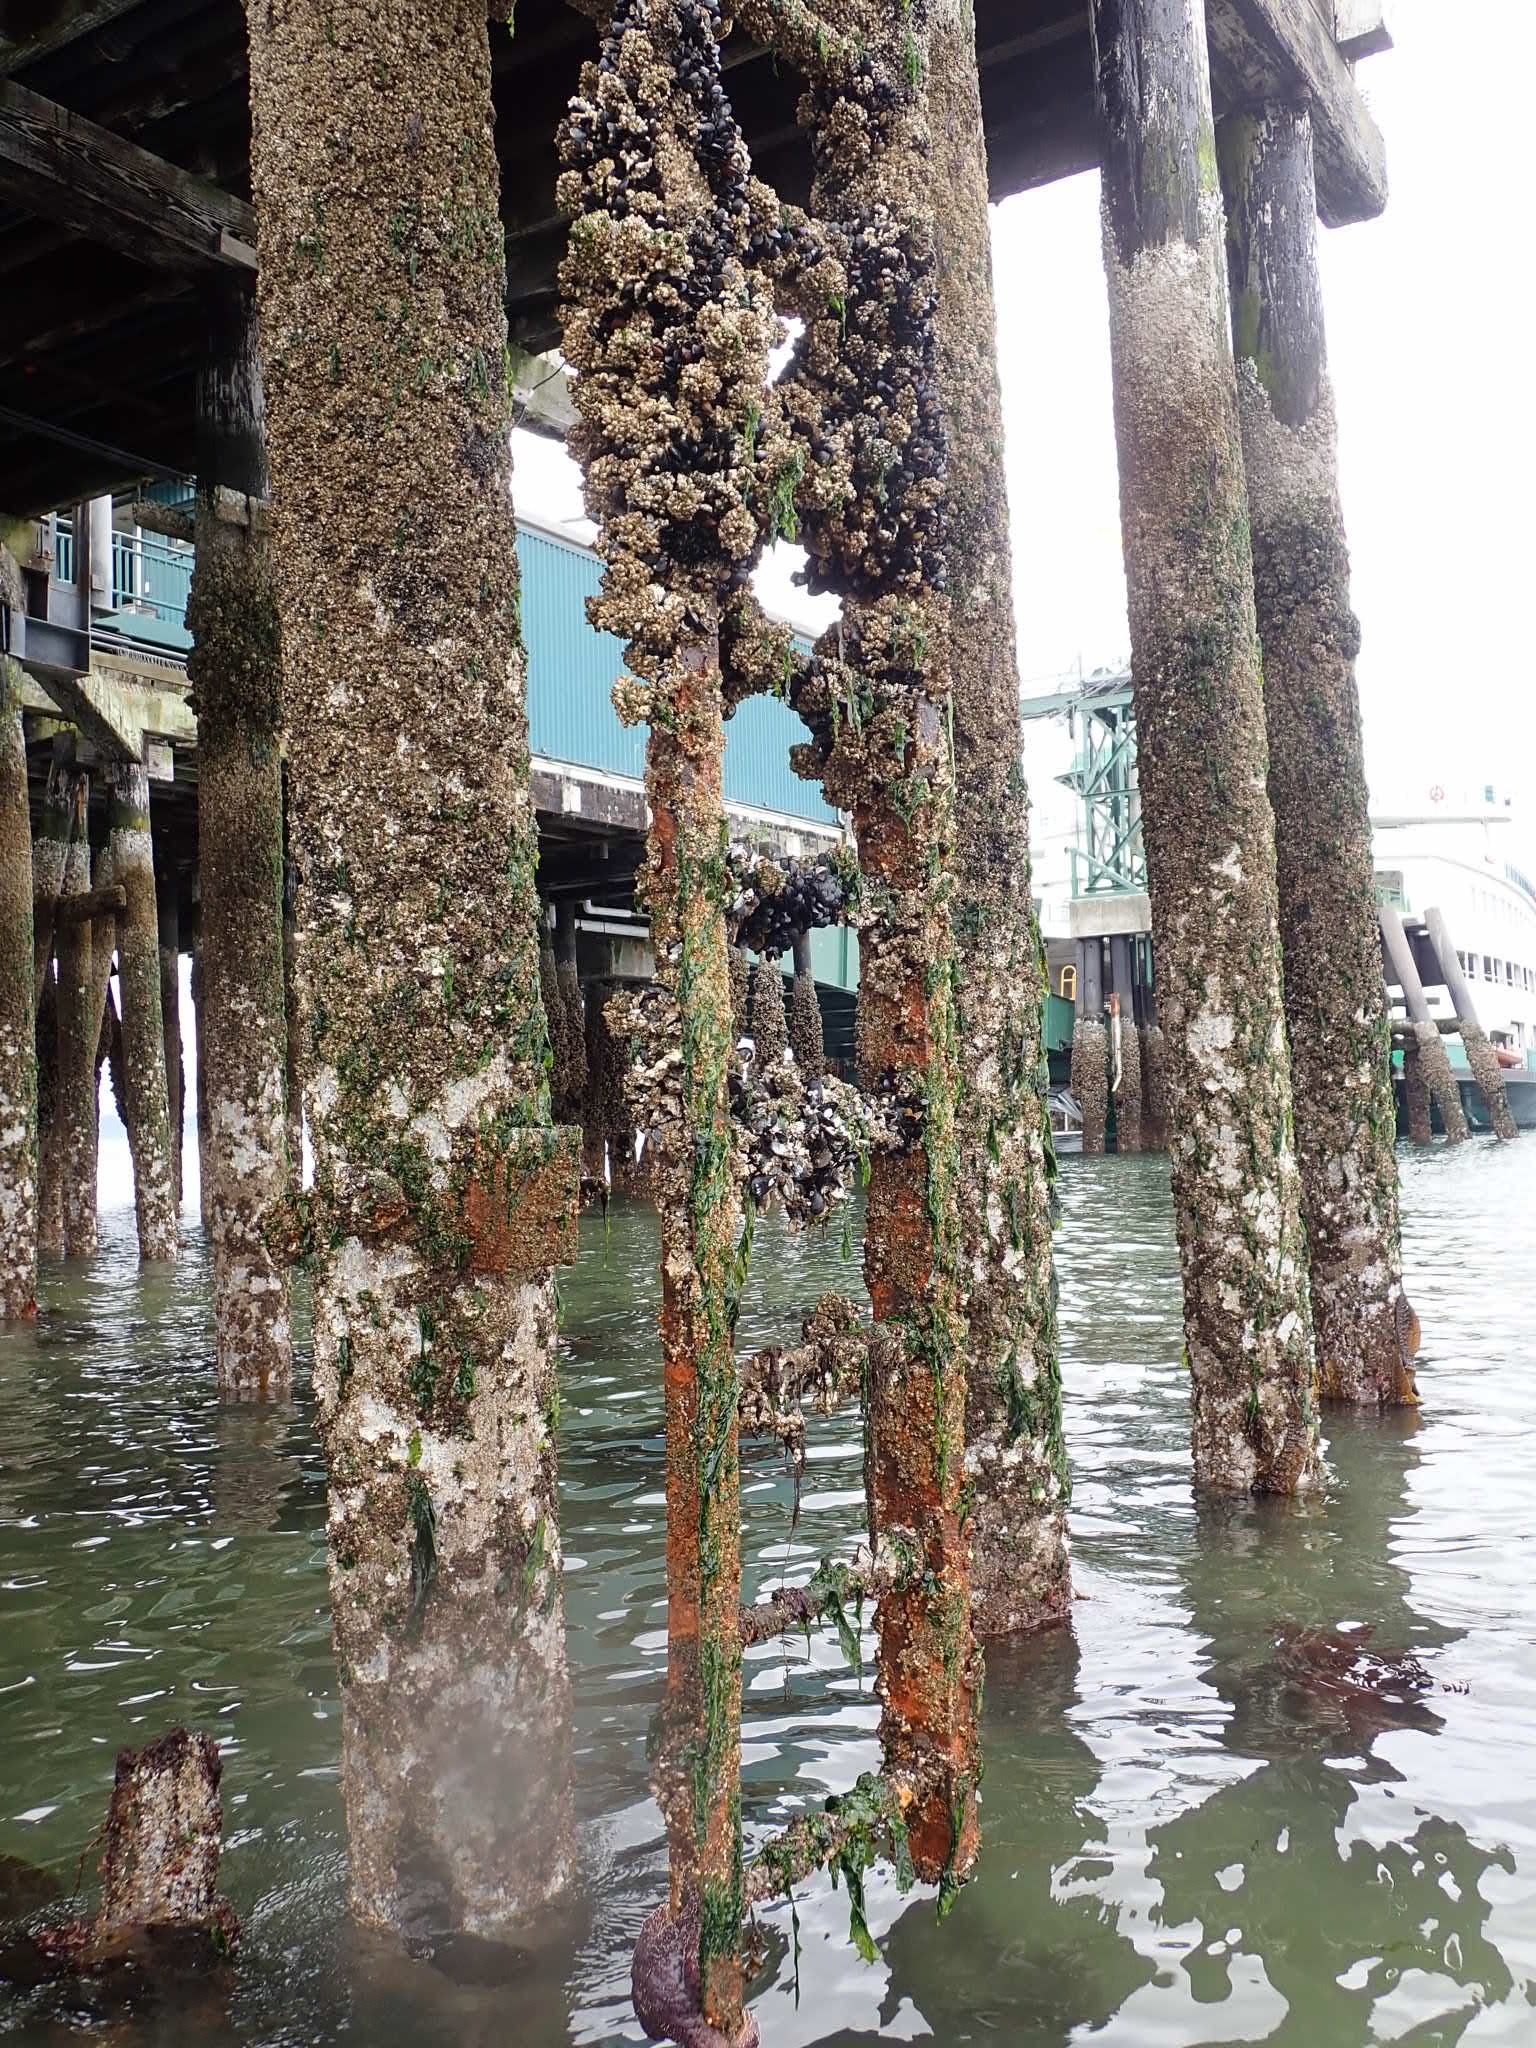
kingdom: Animalia
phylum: Mollusca
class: Bivalvia
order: Mytilida
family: Mytilidae
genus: Mytilus
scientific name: Mytilus
